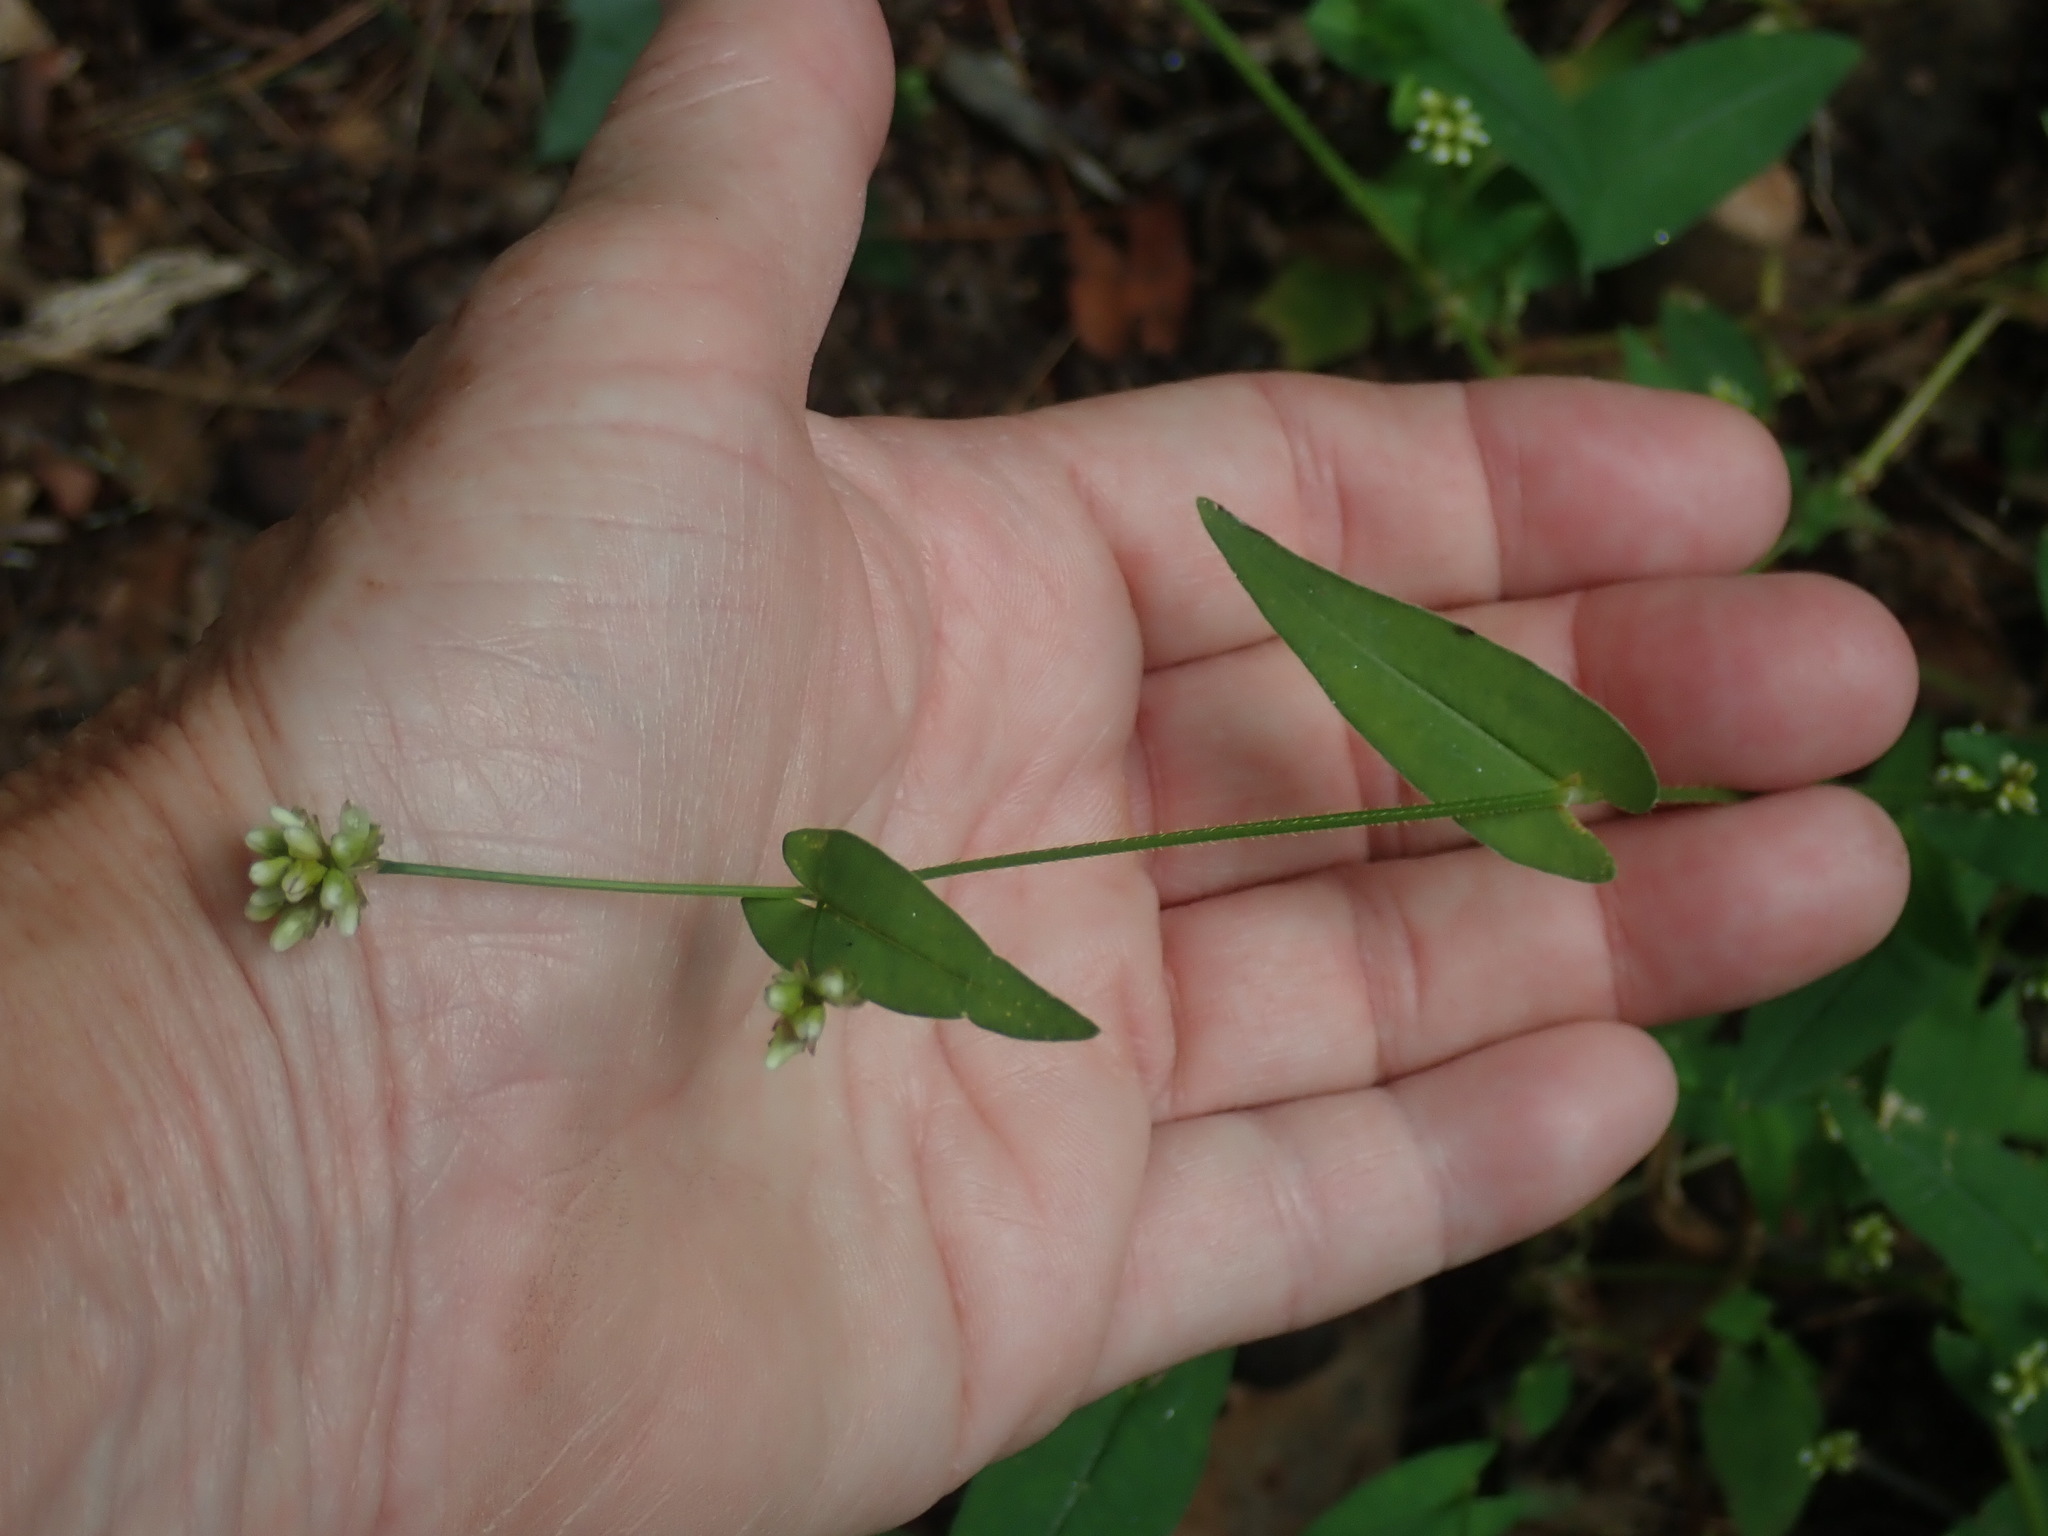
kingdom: Plantae
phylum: Tracheophyta
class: Magnoliopsida
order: Caryophyllales
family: Polygonaceae
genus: Persicaria
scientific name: Persicaria sagittata
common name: American tearthumb
